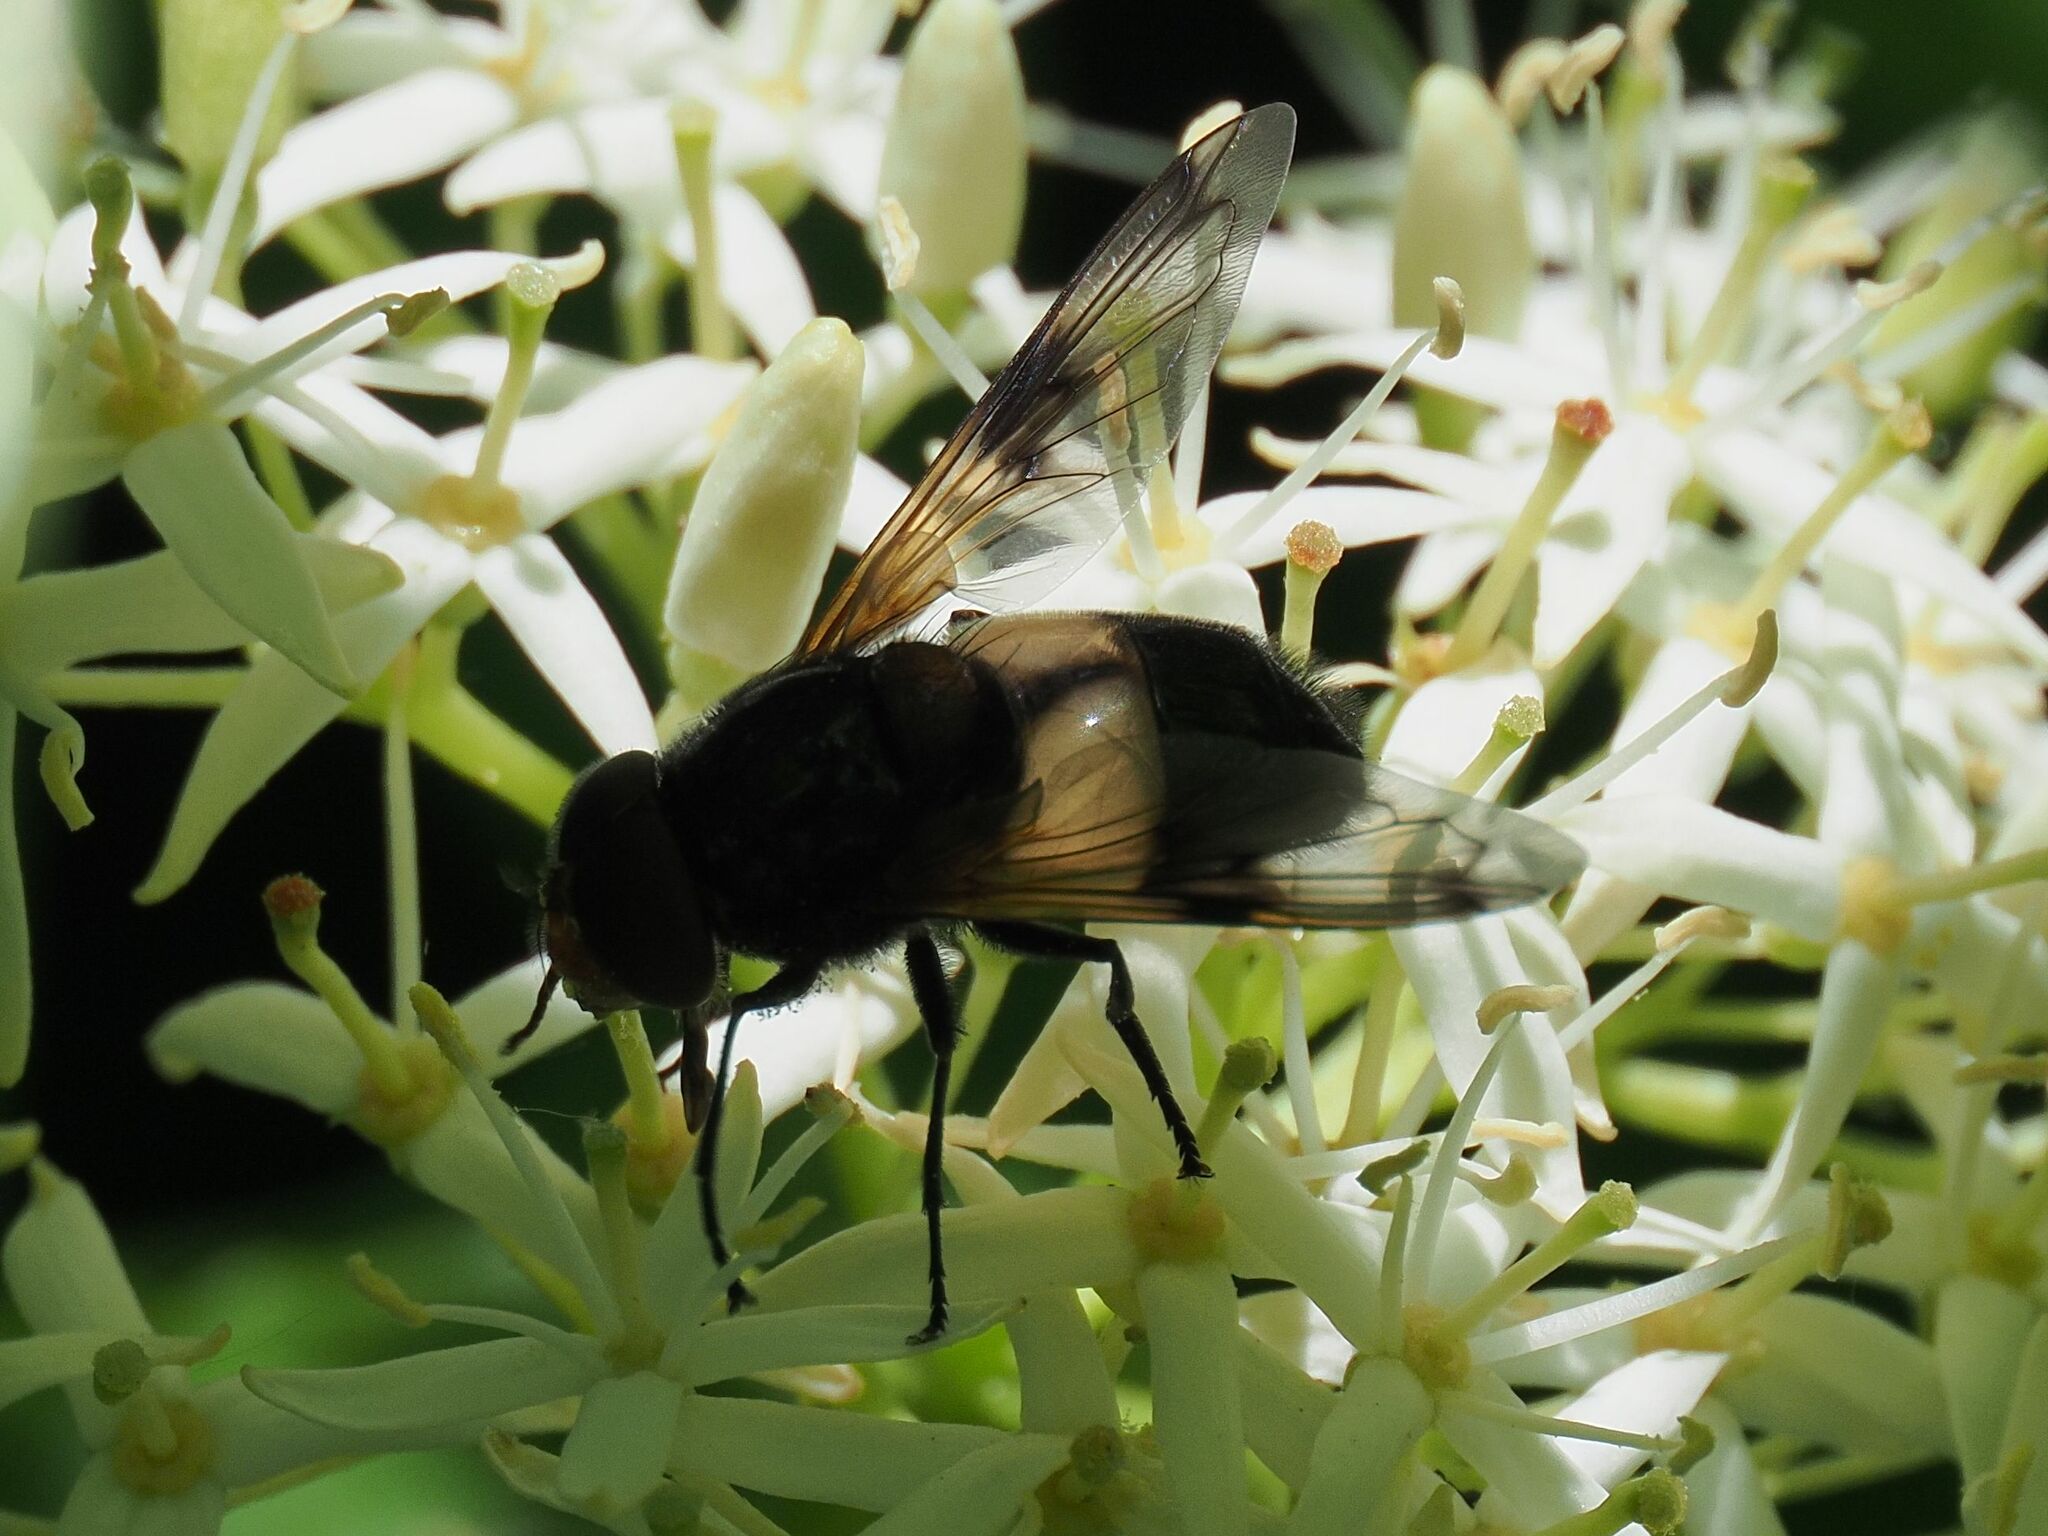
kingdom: Animalia
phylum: Arthropoda
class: Insecta
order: Diptera
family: Syrphidae
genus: Volucella
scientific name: Volucella pellucens
